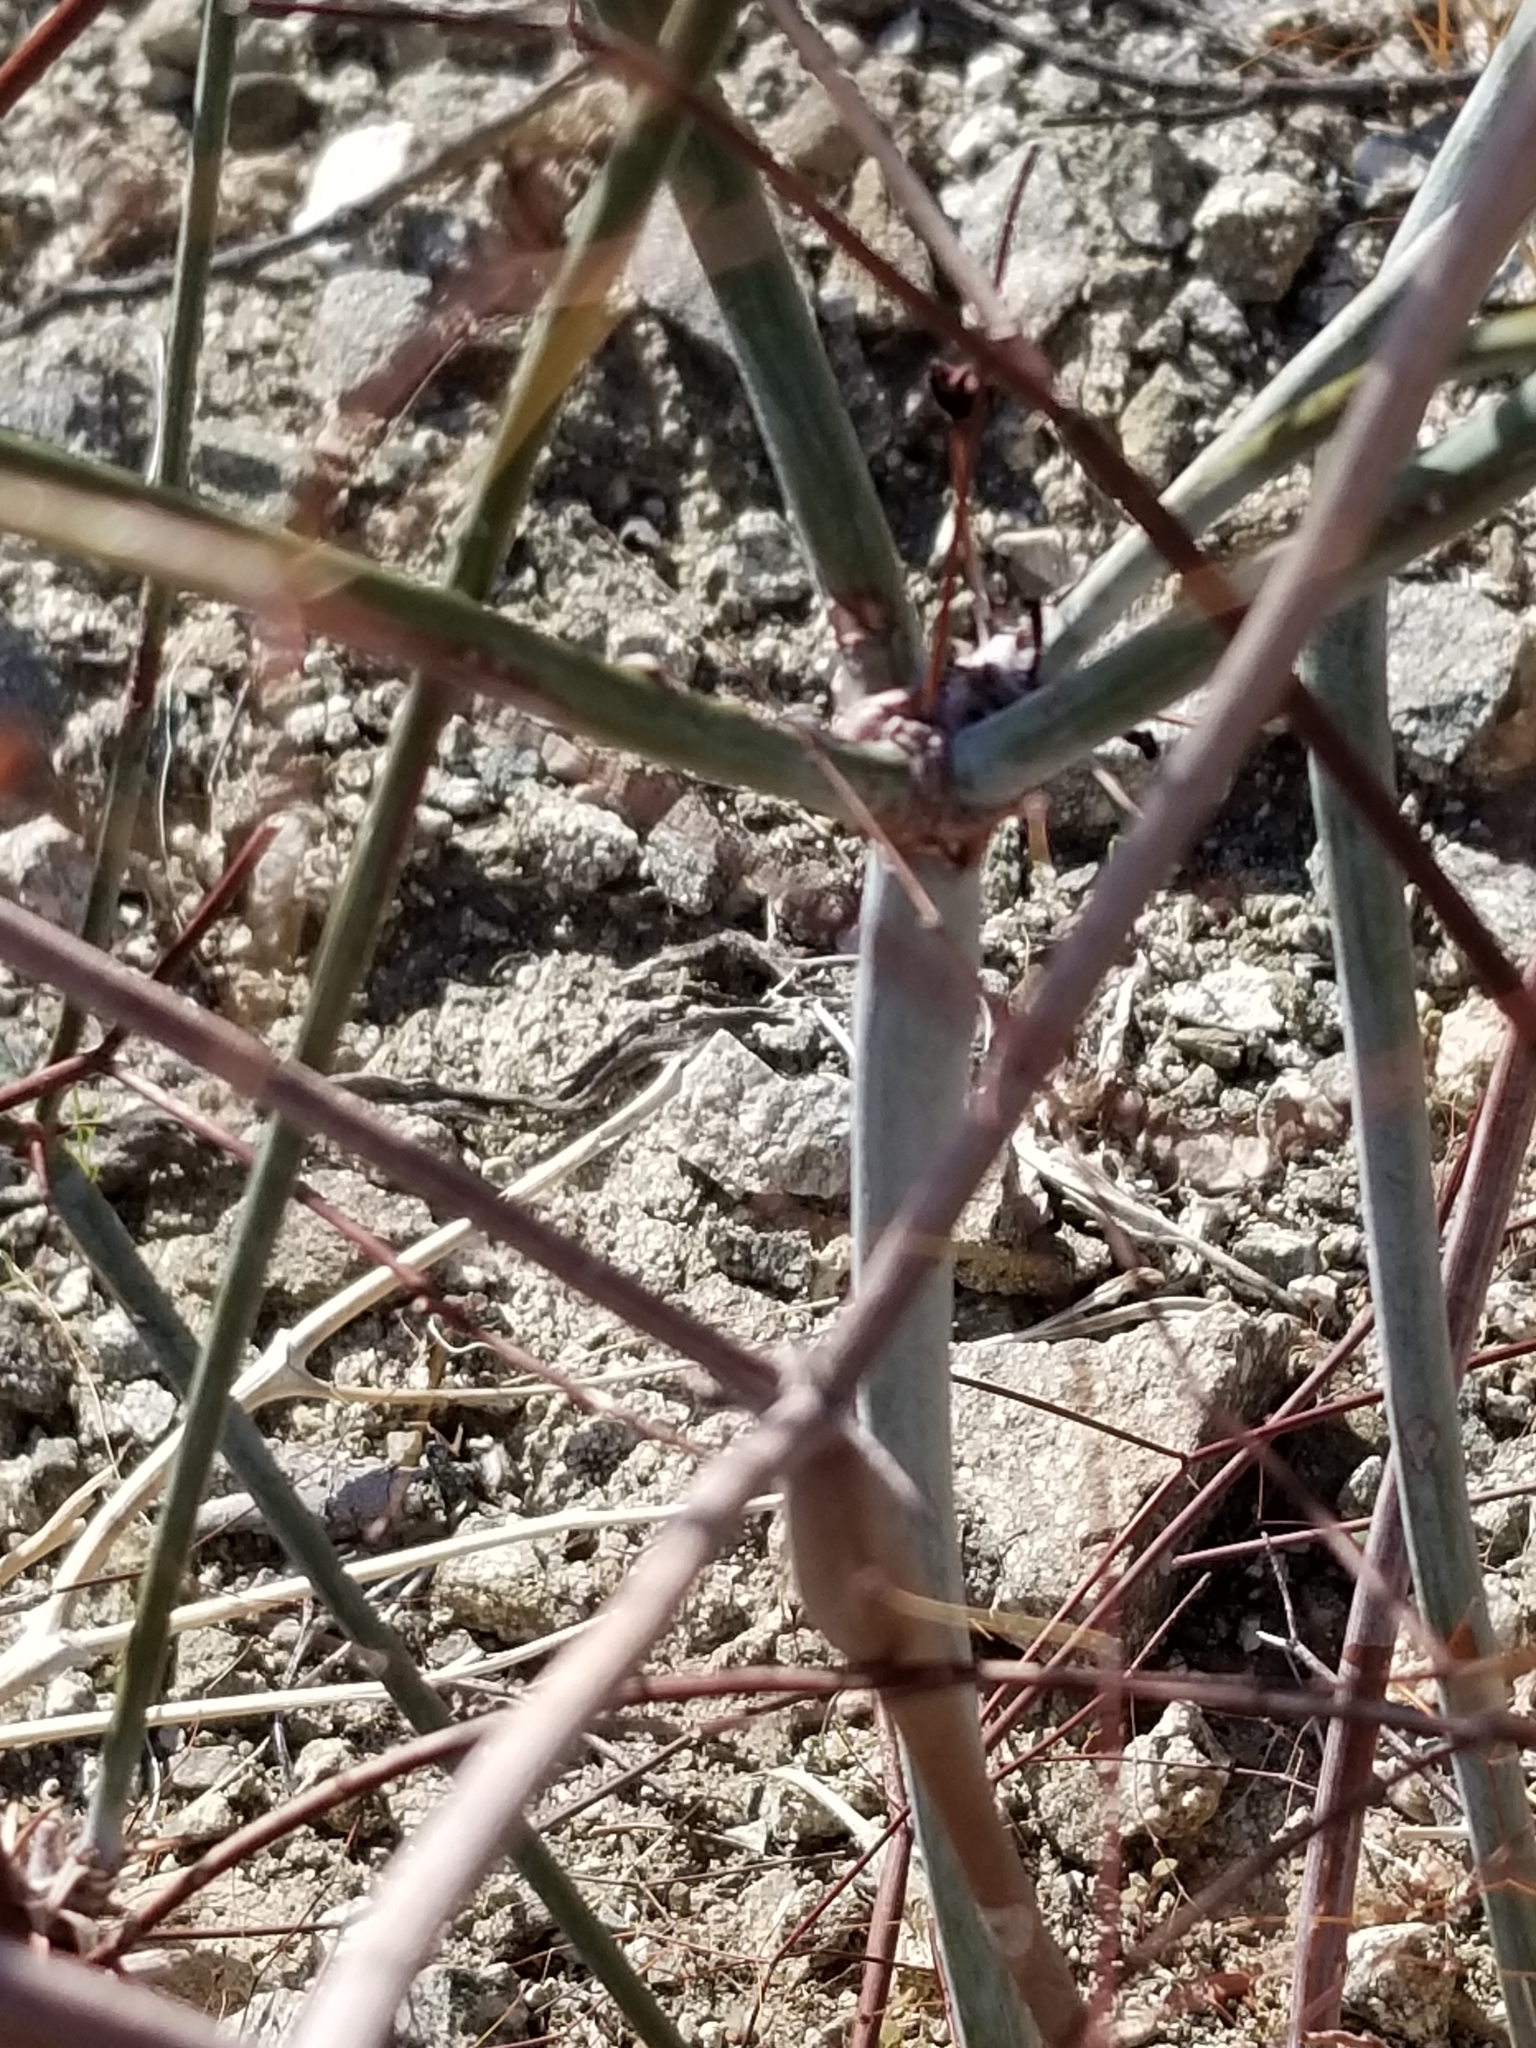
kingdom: Plantae
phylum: Tracheophyta
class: Magnoliopsida
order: Caryophyllales
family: Polygonaceae
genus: Eriogonum
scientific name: Eriogonum inflatum
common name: Desert trumpet
